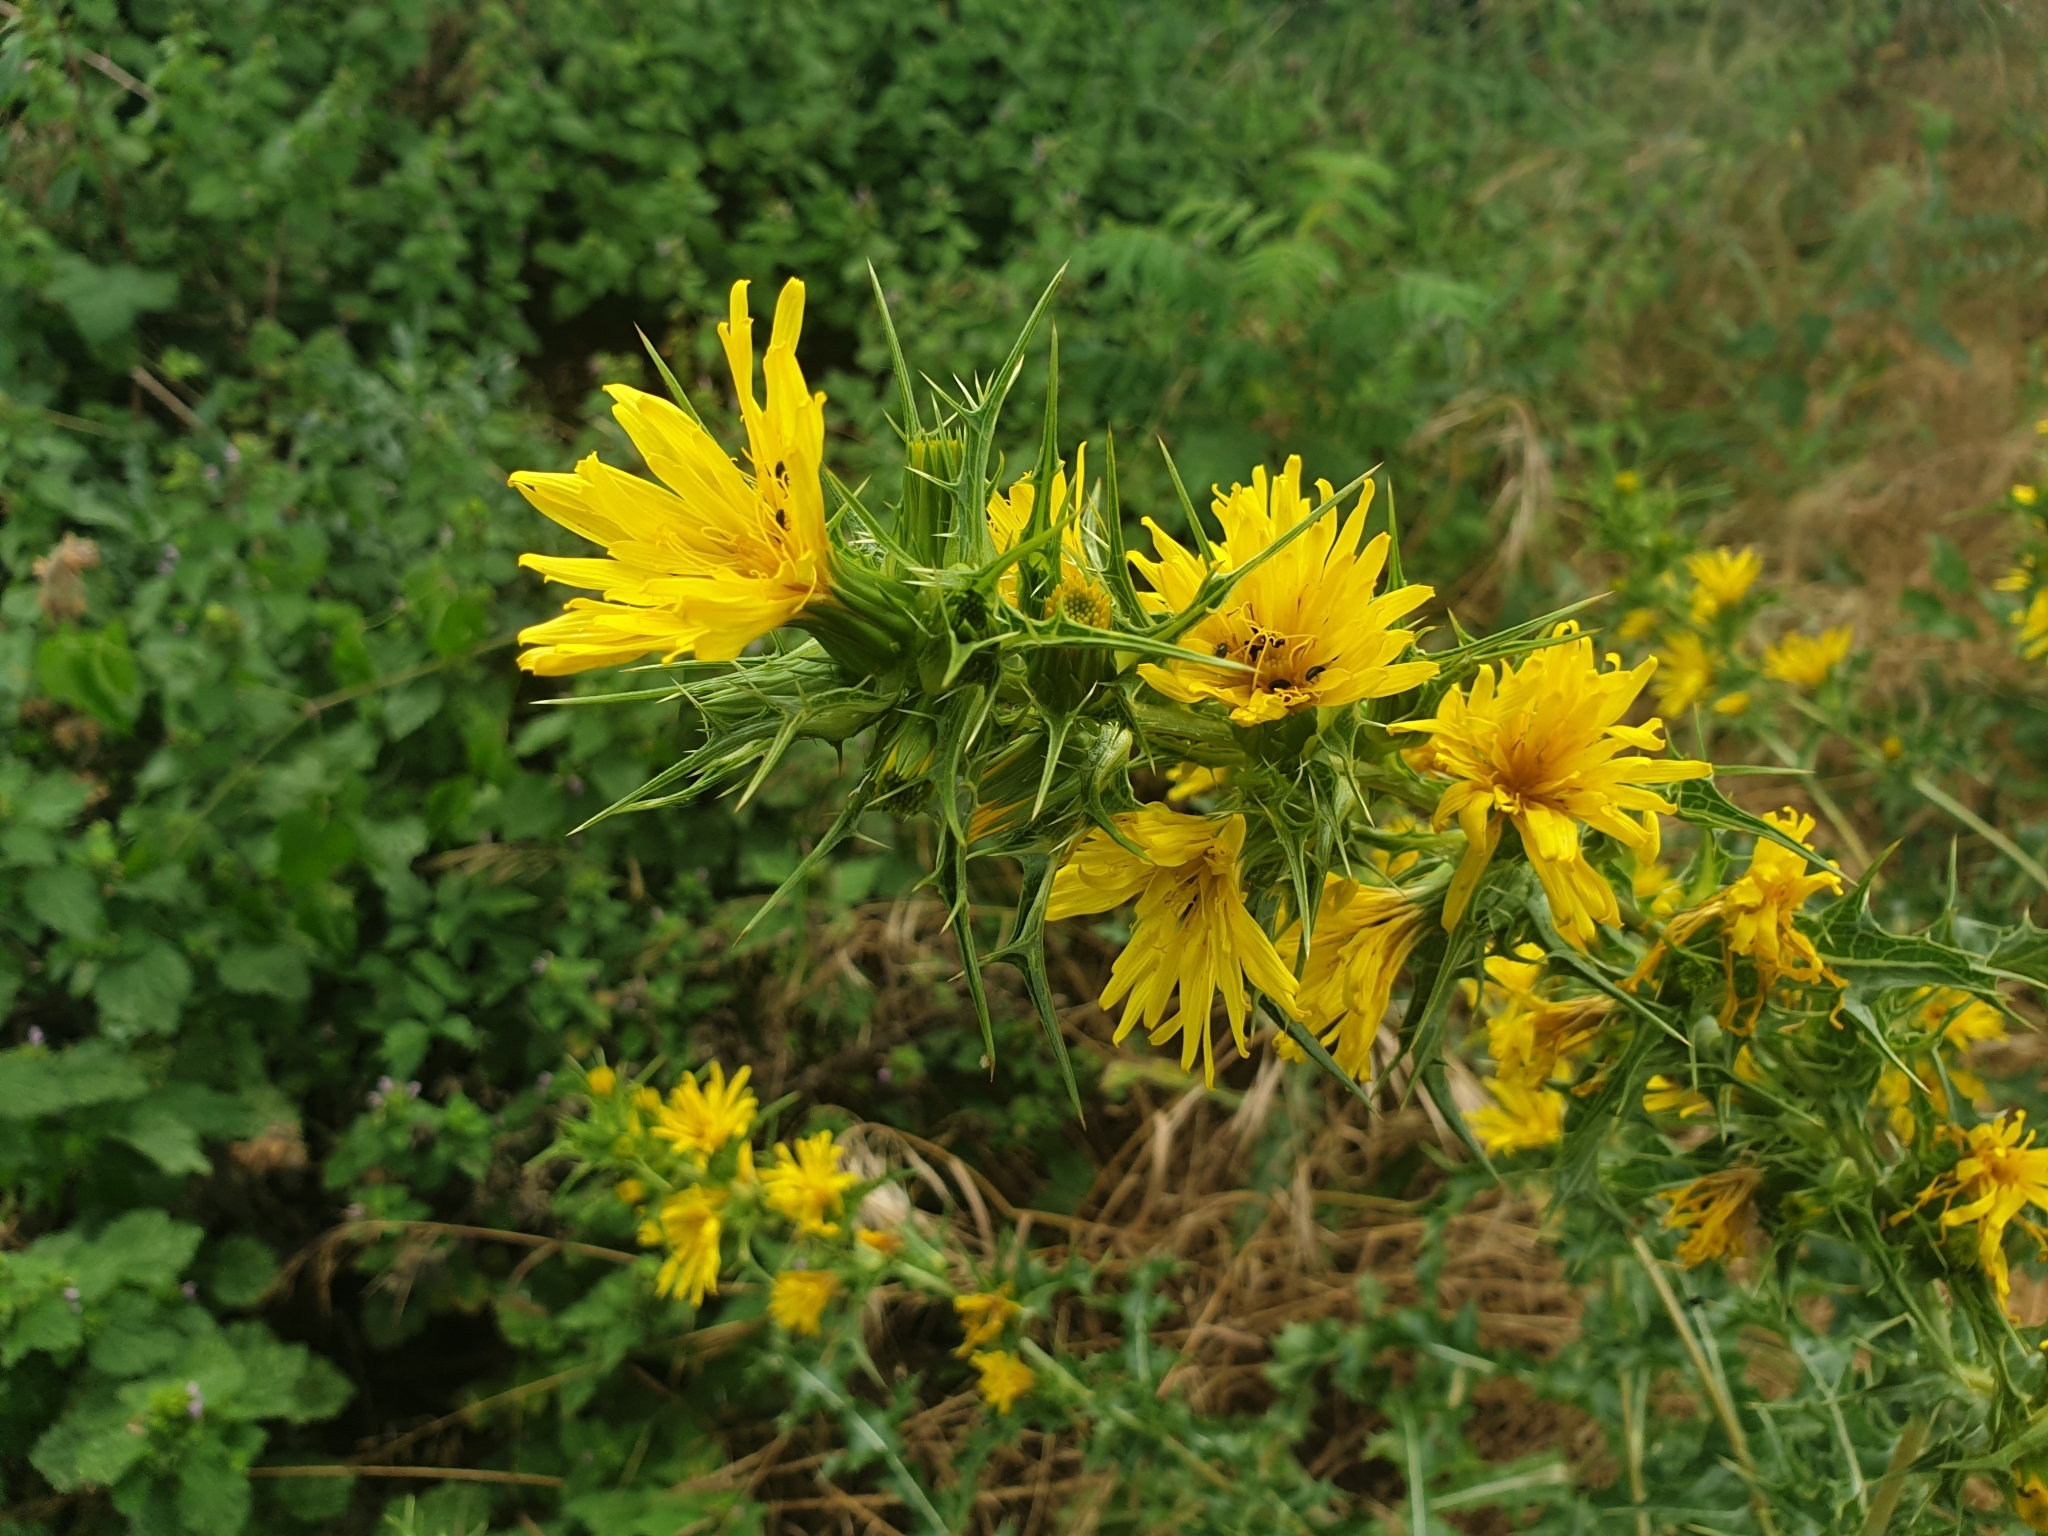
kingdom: Plantae
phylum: Tracheophyta
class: Magnoliopsida
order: Asterales
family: Asteraceae
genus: Scolymus
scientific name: Scolymus hispanicus
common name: Golden thistle
